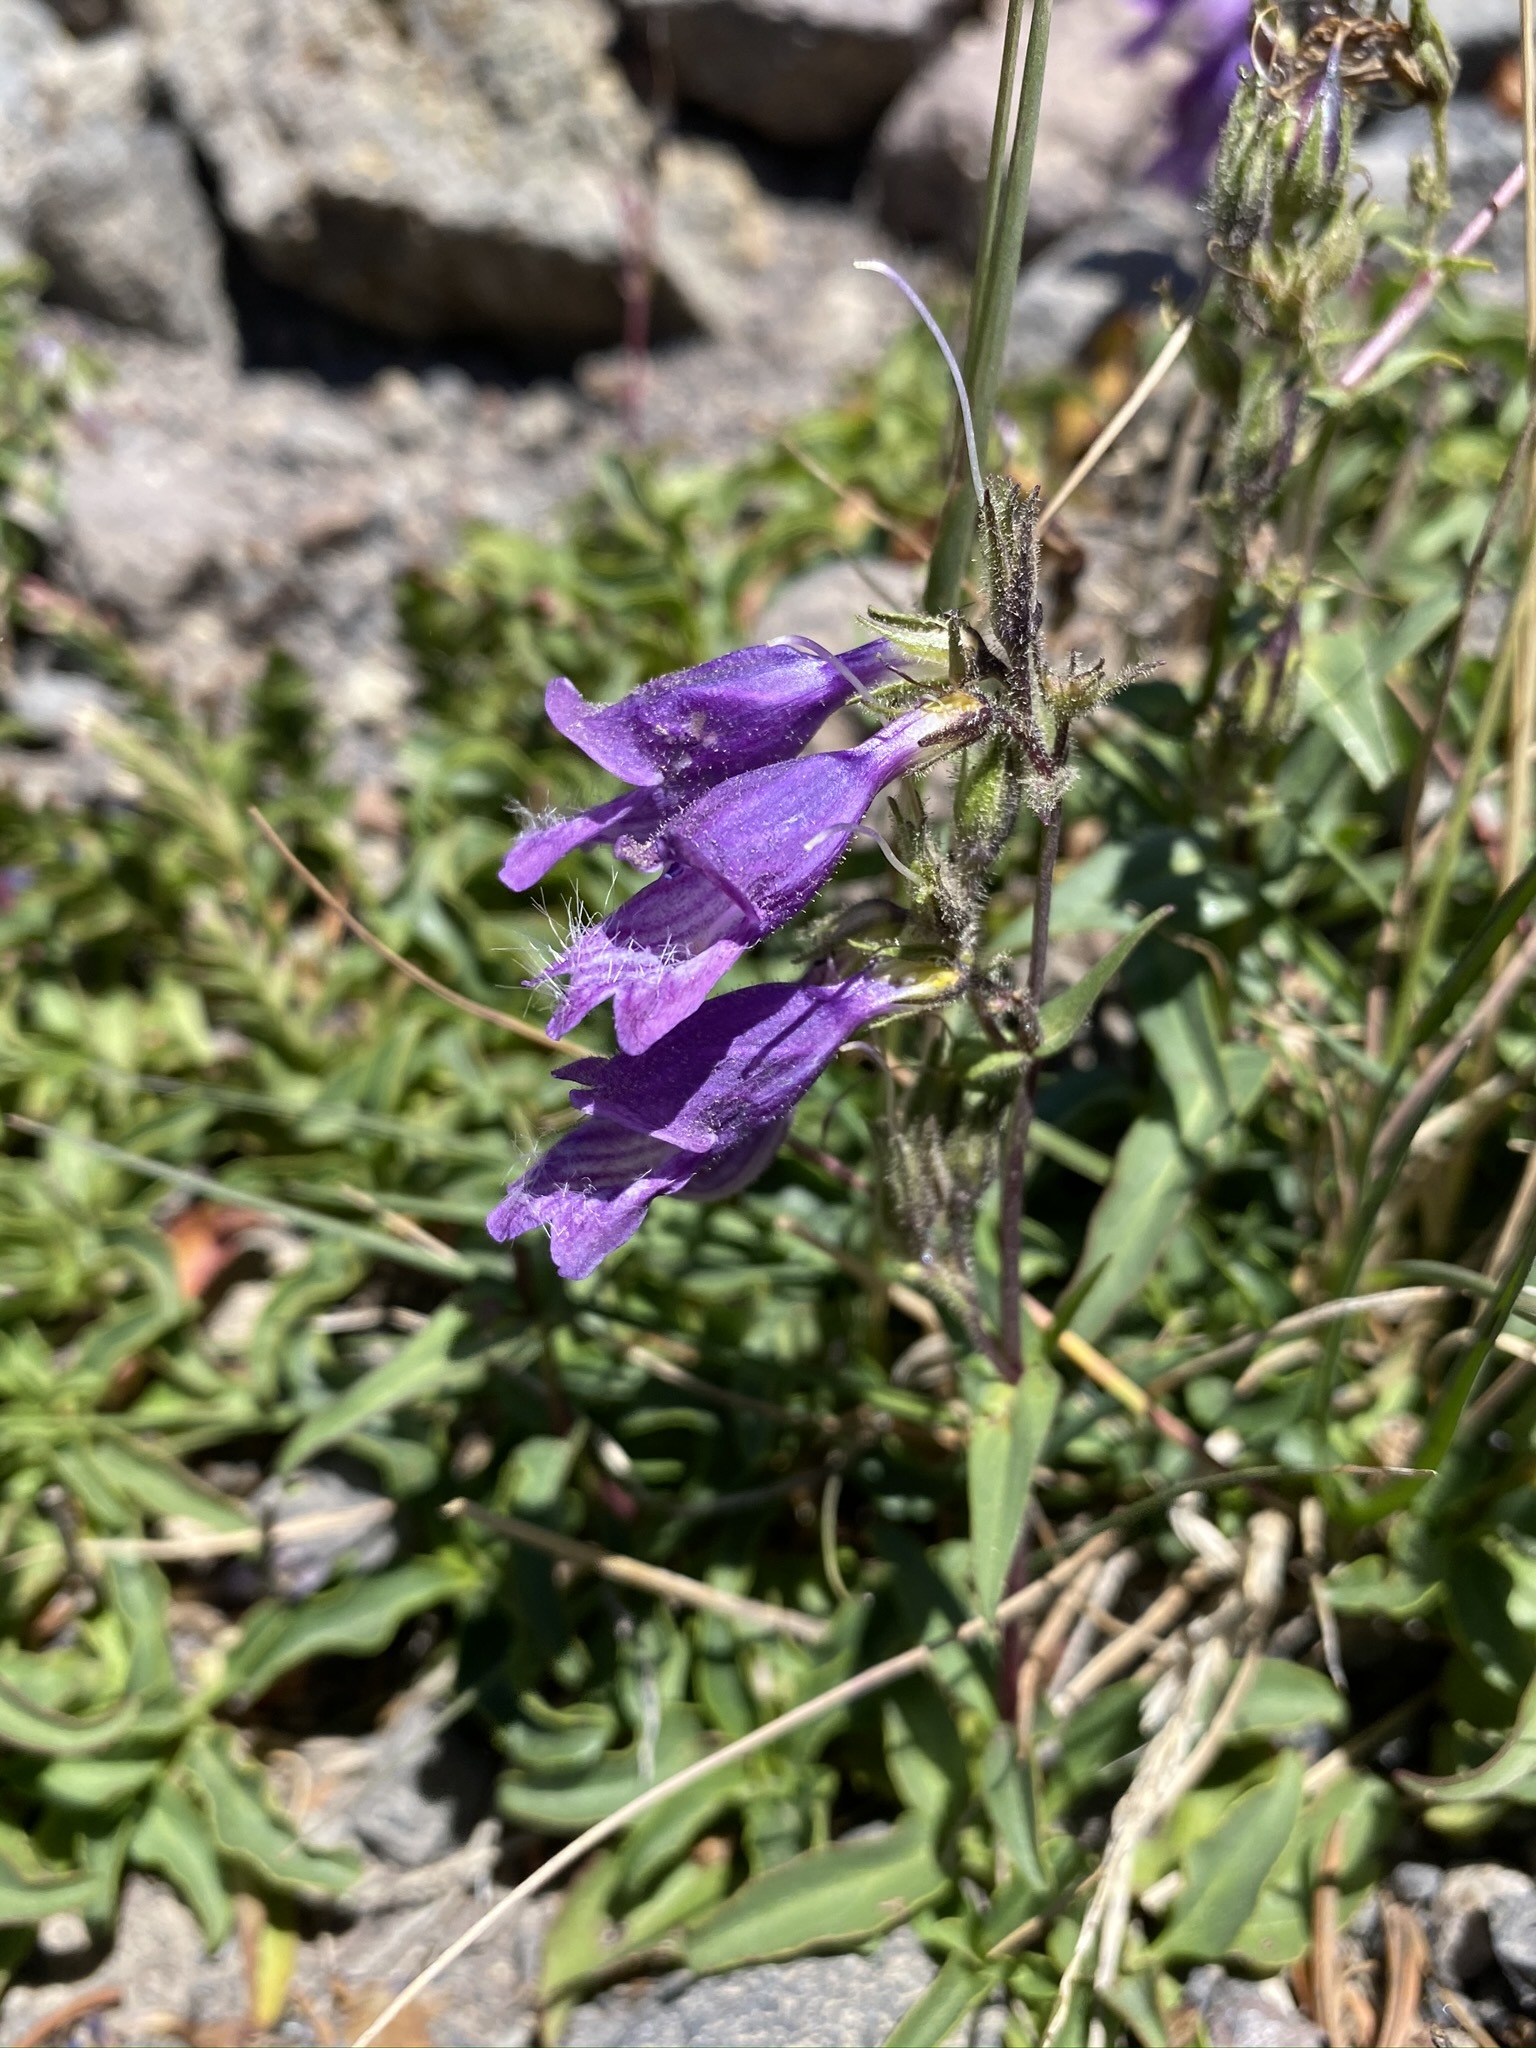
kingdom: Plantae
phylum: Tracheophyta
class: Magnoliopsida
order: Lamiales
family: Plantaginaceae
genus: Penstemon
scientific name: Penstemon whippleanus
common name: Whipple's penstemon
